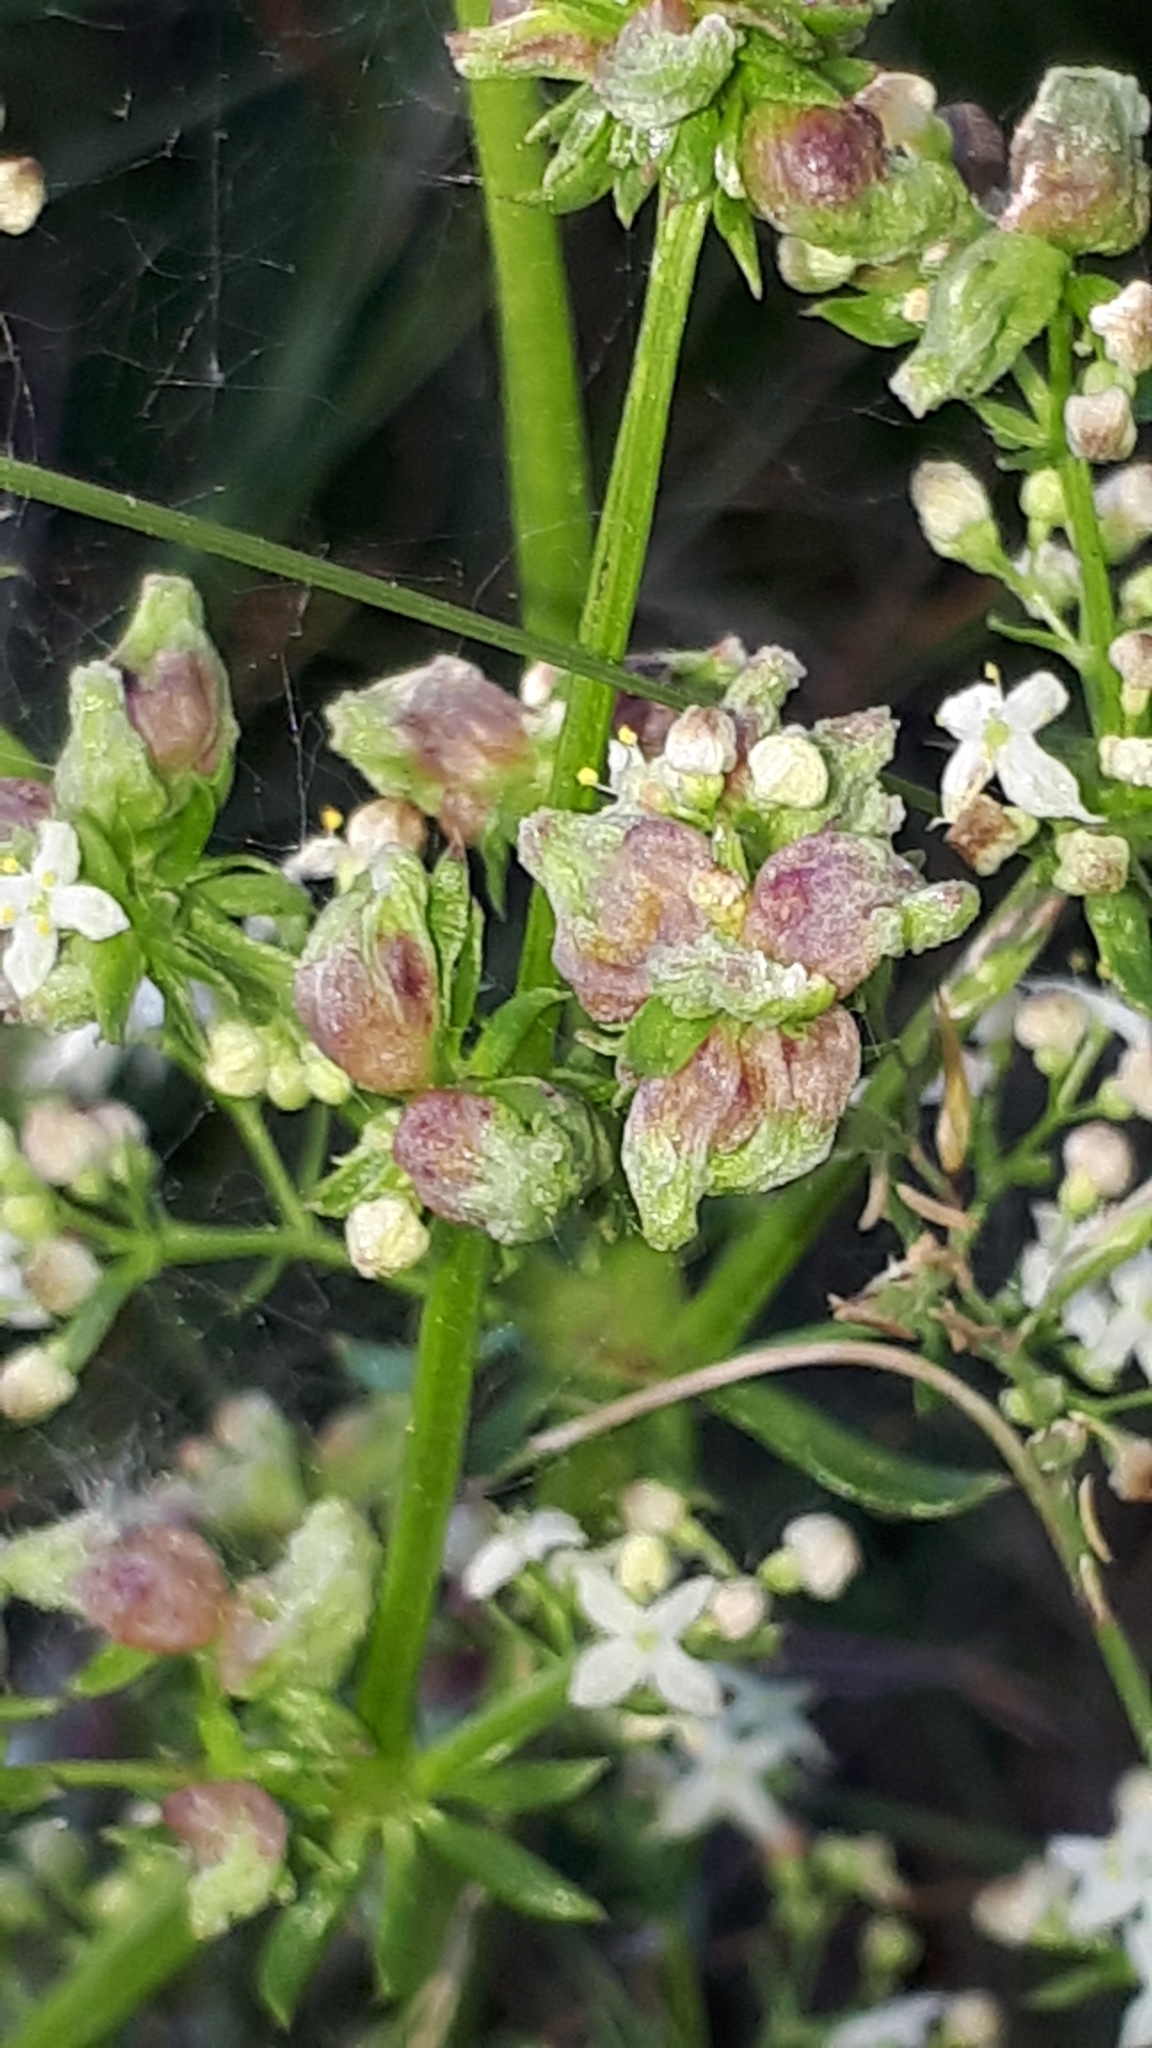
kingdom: Animalia
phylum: Arthropoda
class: Arachnida
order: Trombidiformes
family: Eriophyidae
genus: Aceria
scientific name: Aceria galiobia
